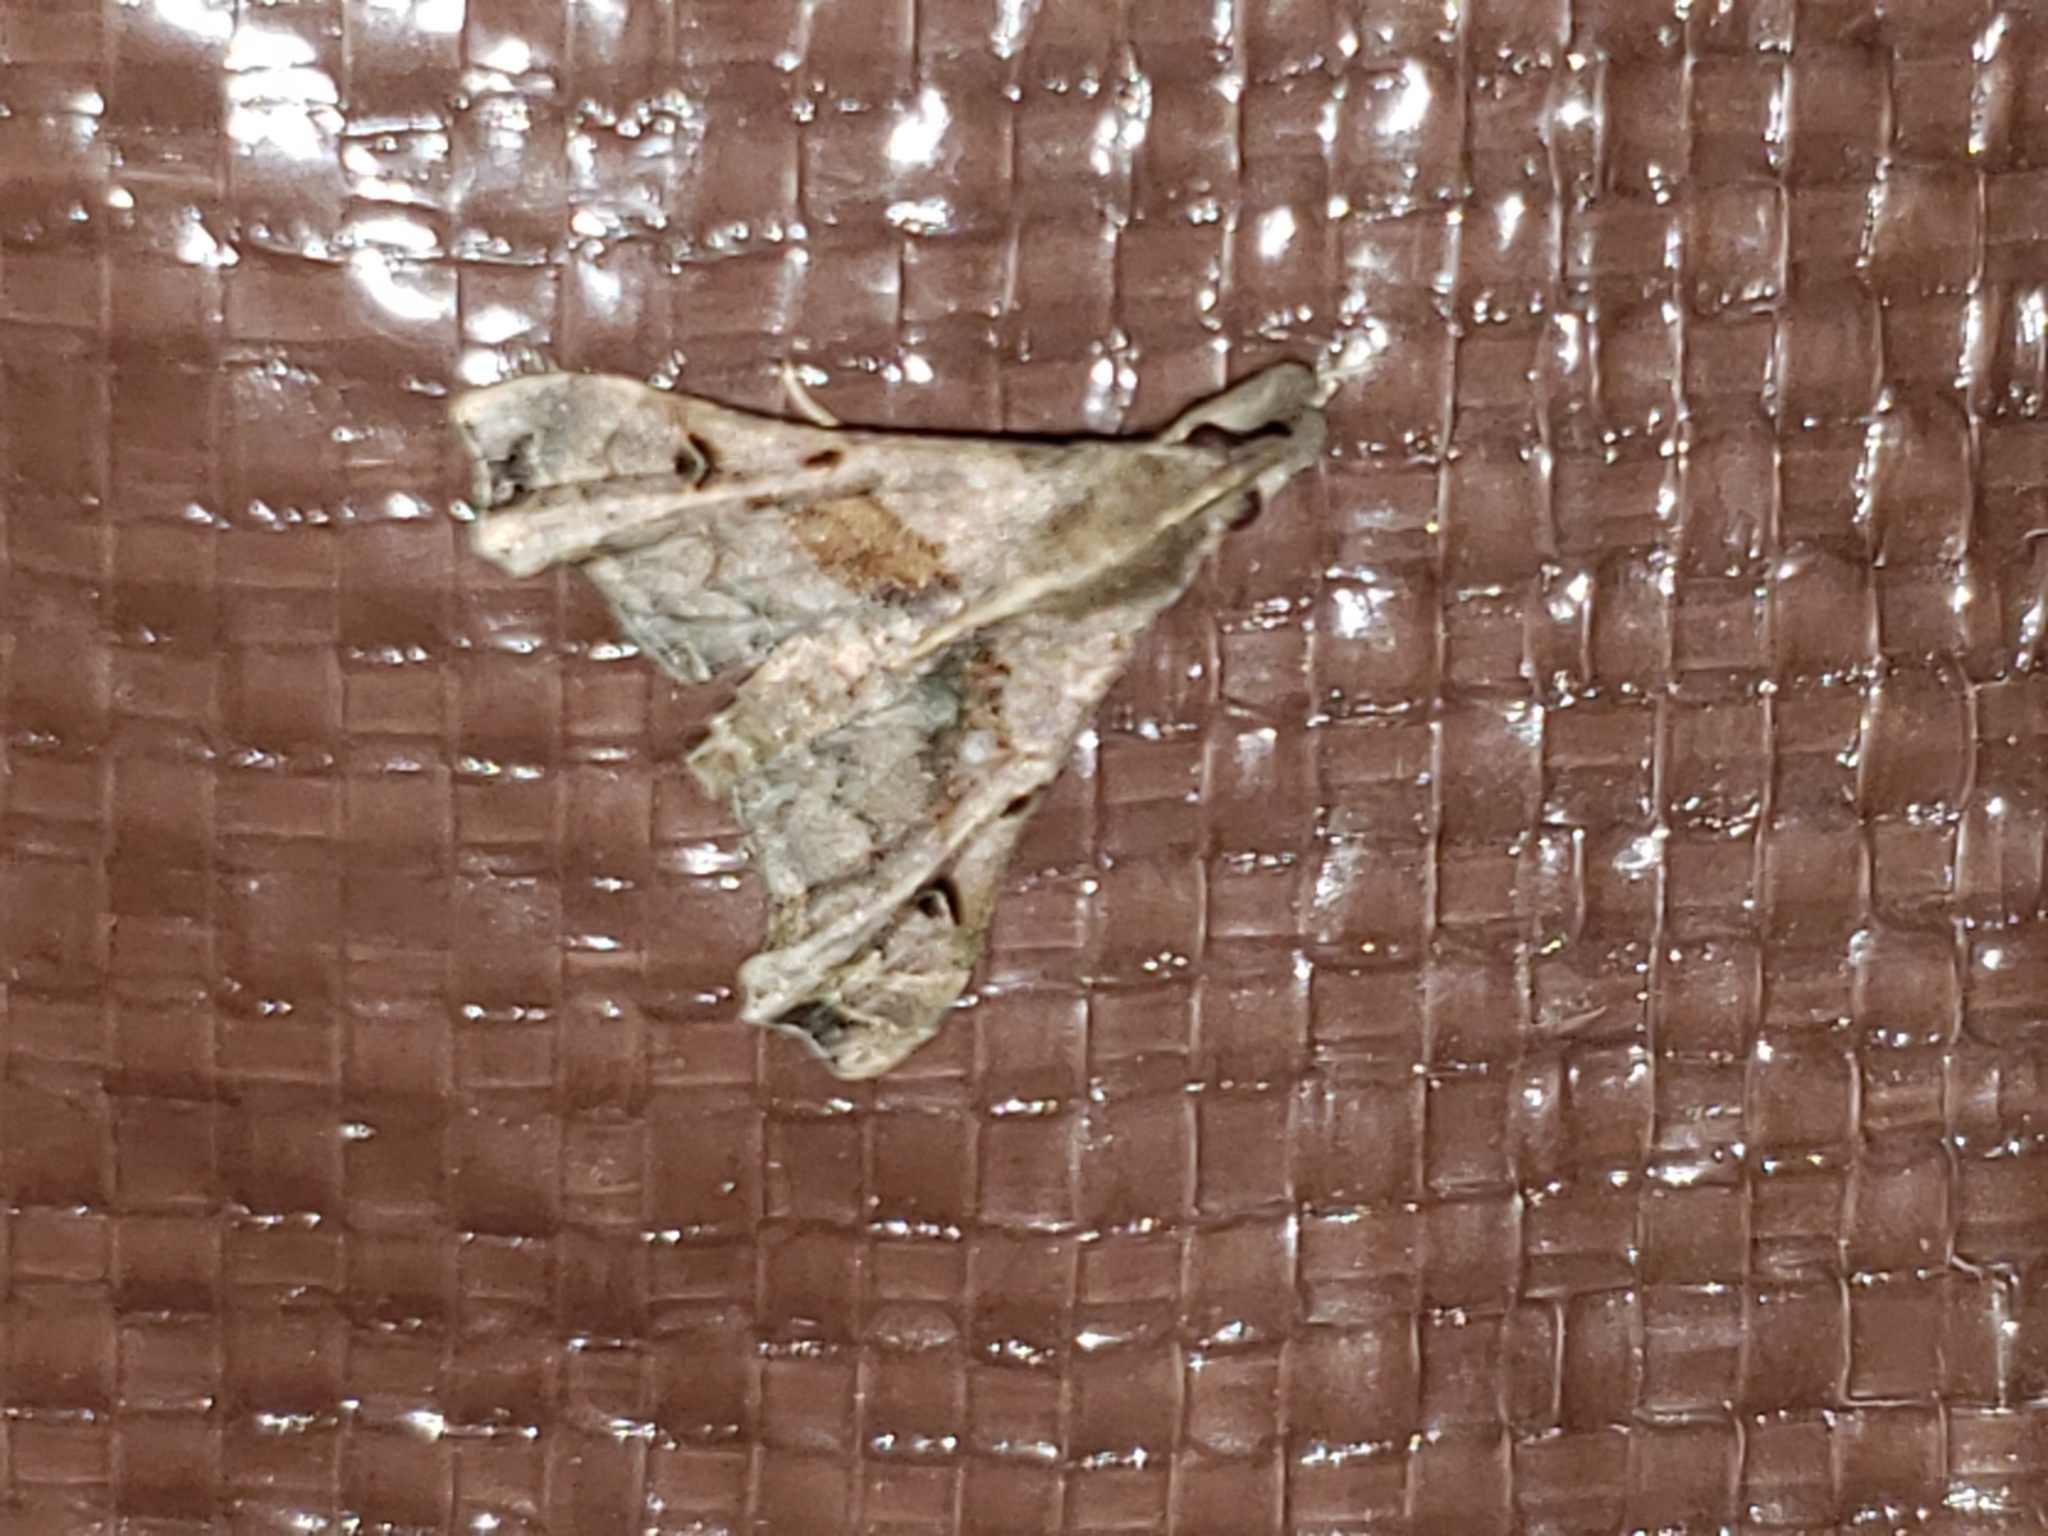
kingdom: Animalia
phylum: Arthropoda
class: Insecta
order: Lepidoptera
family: Erebidae
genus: Palthis
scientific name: Palthis asopialis
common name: Faint-spotted palthis moth
